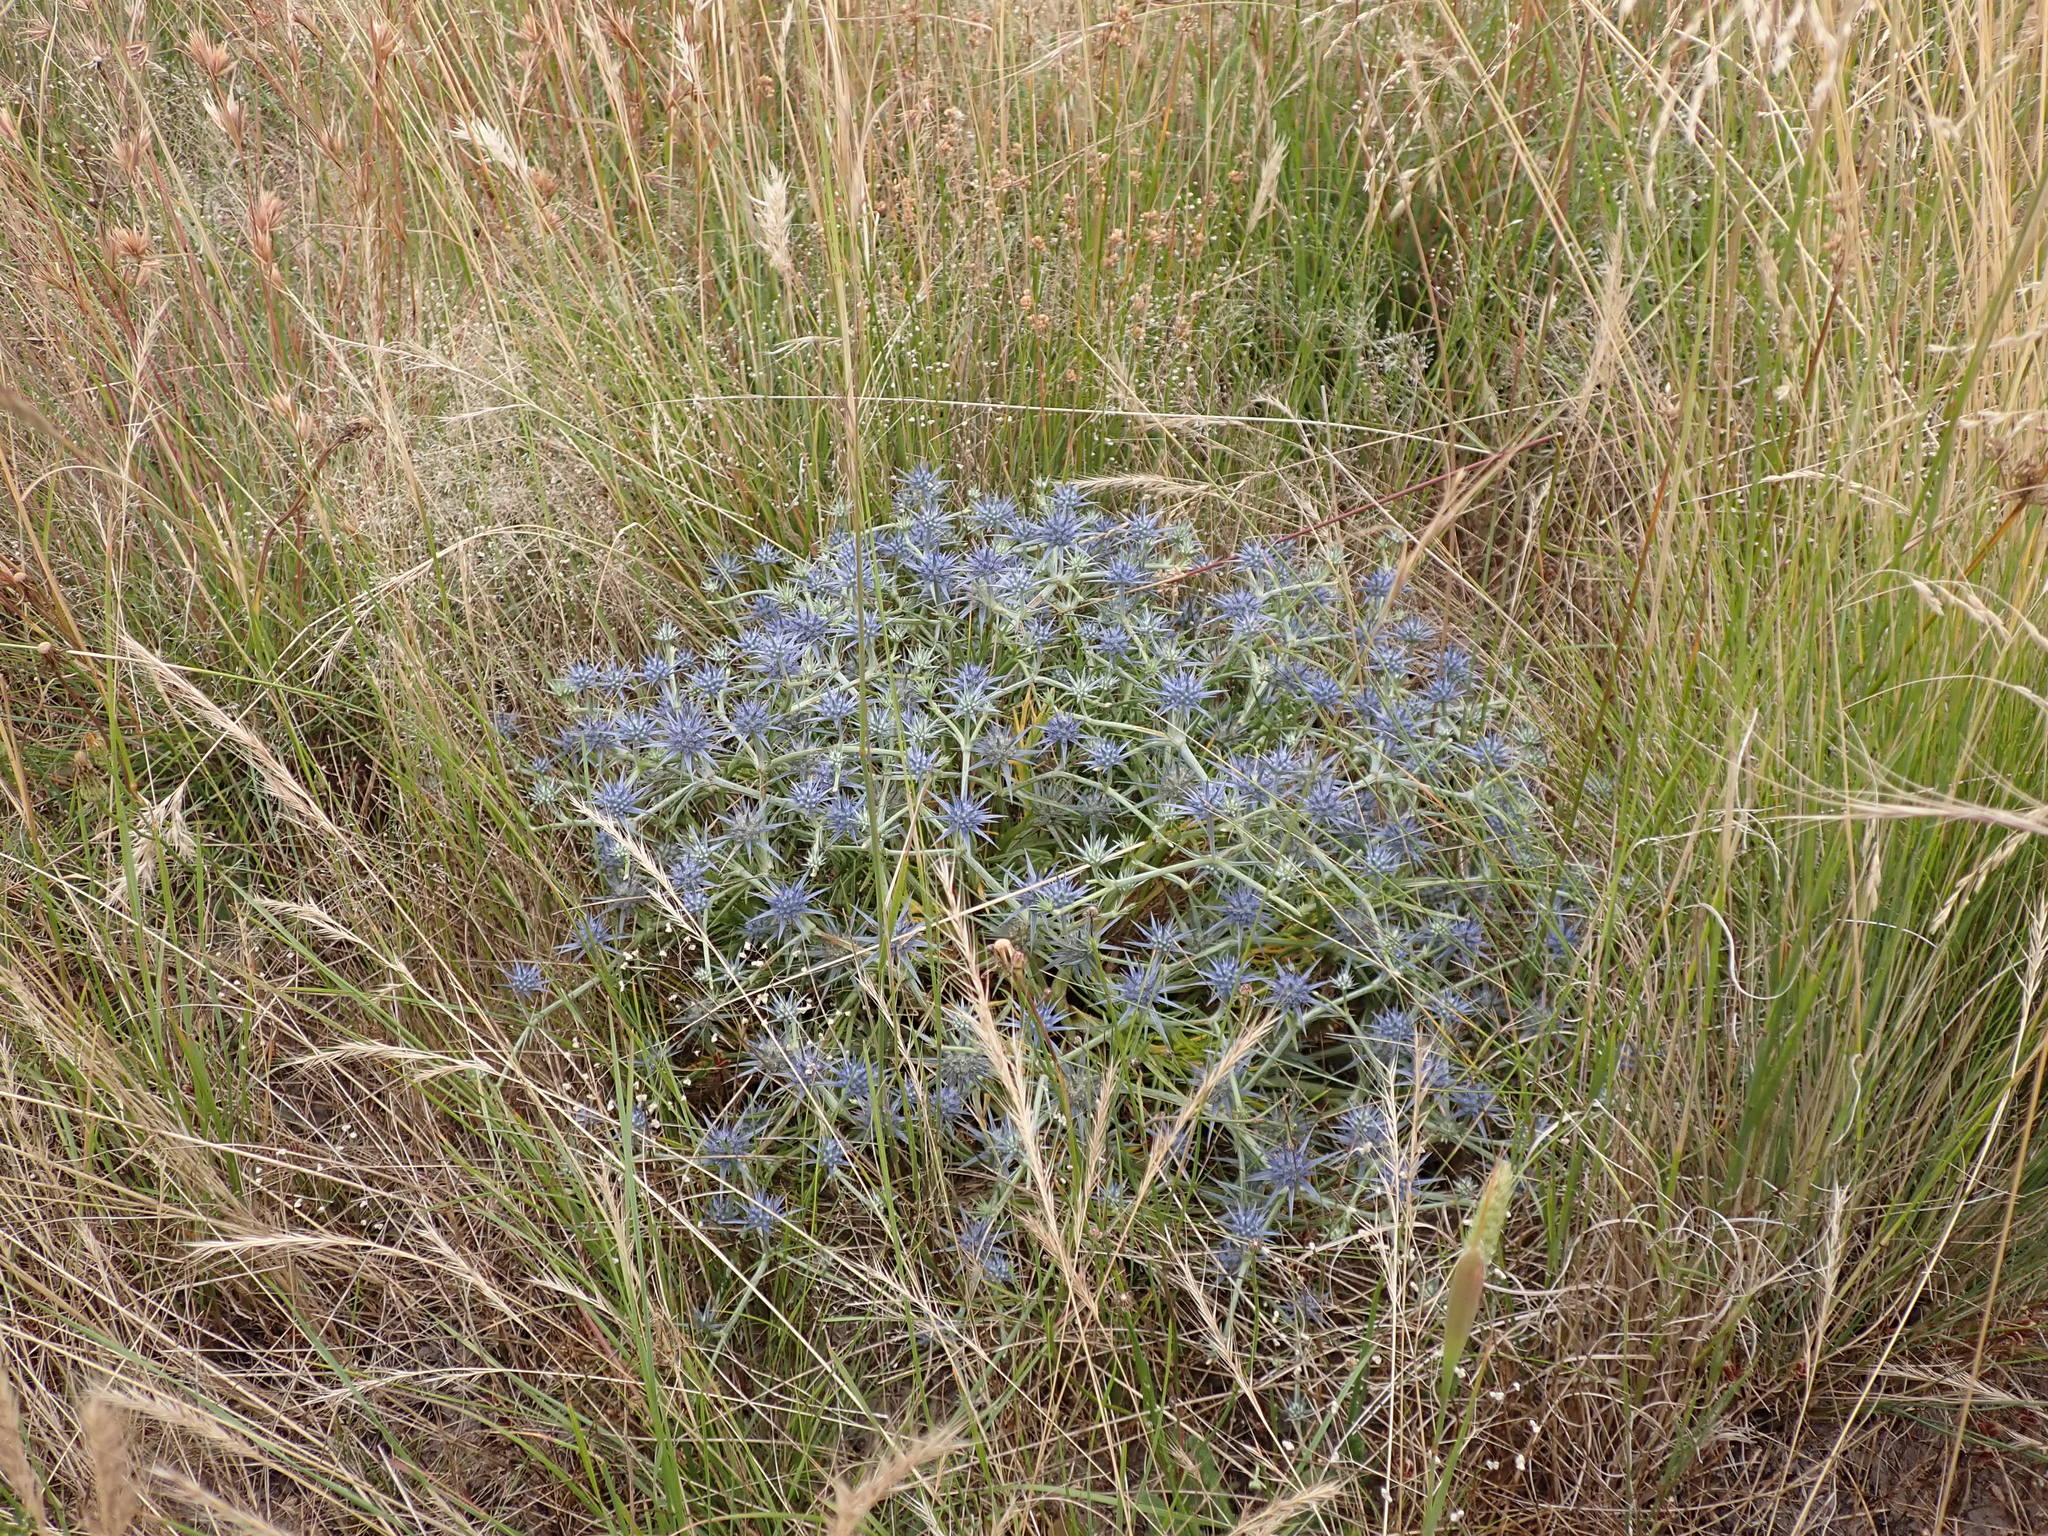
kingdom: Plantae
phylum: Tracheophyta
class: Magnoliopsida
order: Apiales
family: Apiaceae
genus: Eryngium
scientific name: Eryngium ovinum
